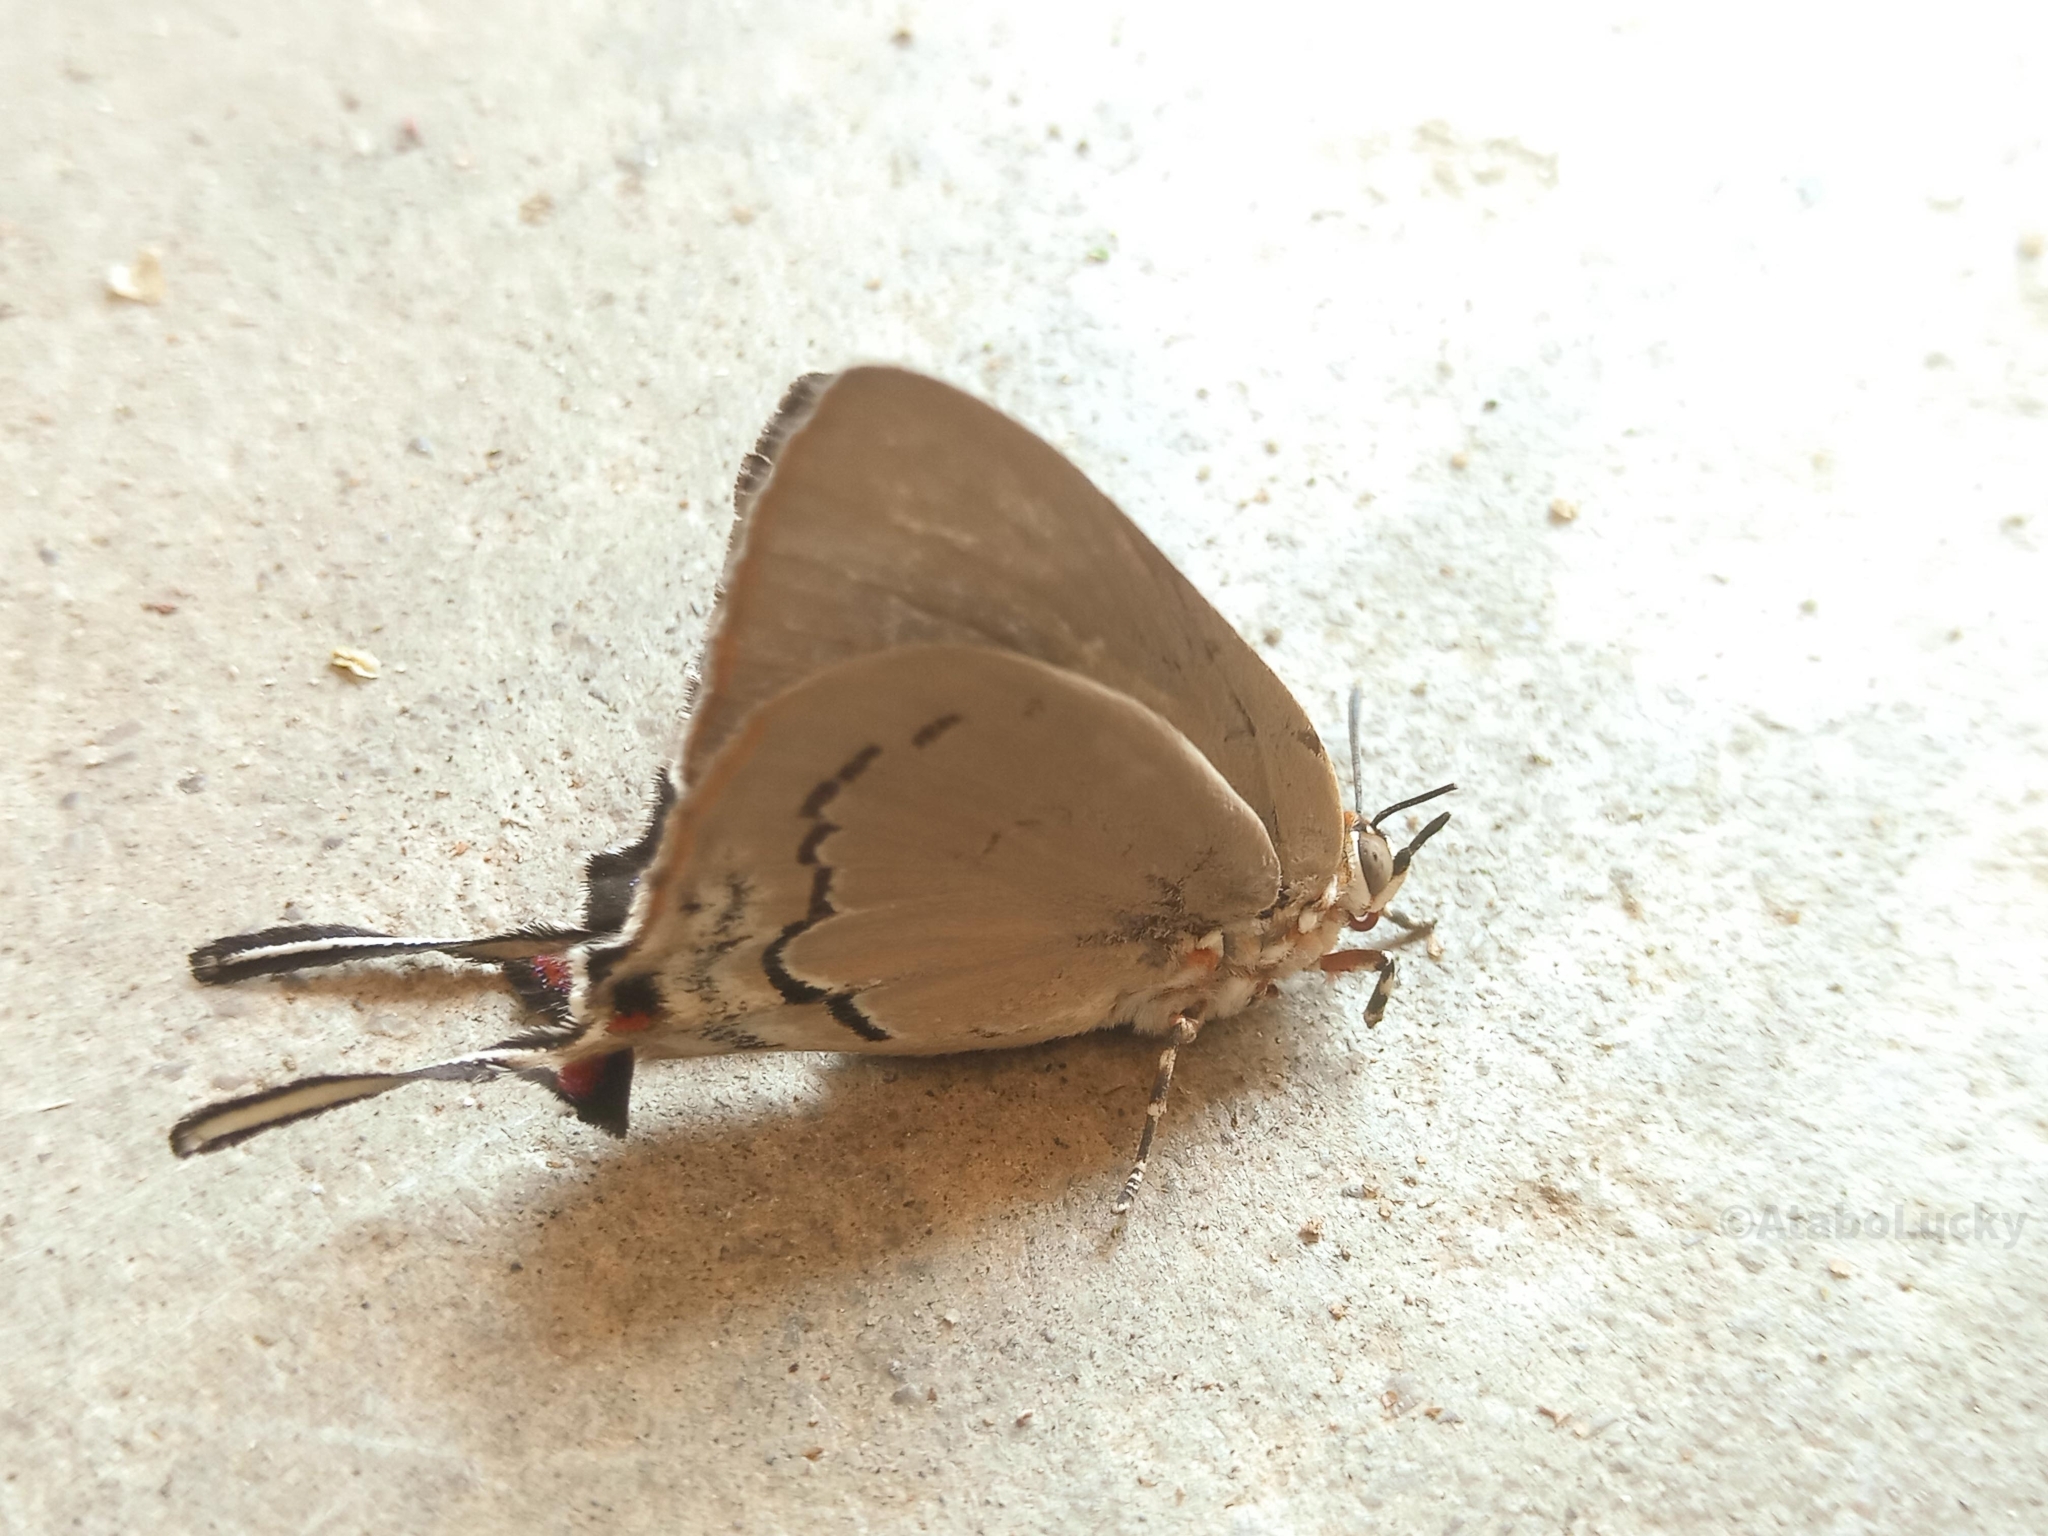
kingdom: Animalia
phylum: Arthropoda
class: Insecta
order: Lepidoptera
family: Lycaenidae
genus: Myrina
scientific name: Myrina dermaptera
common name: Lesser fig-tree blue
